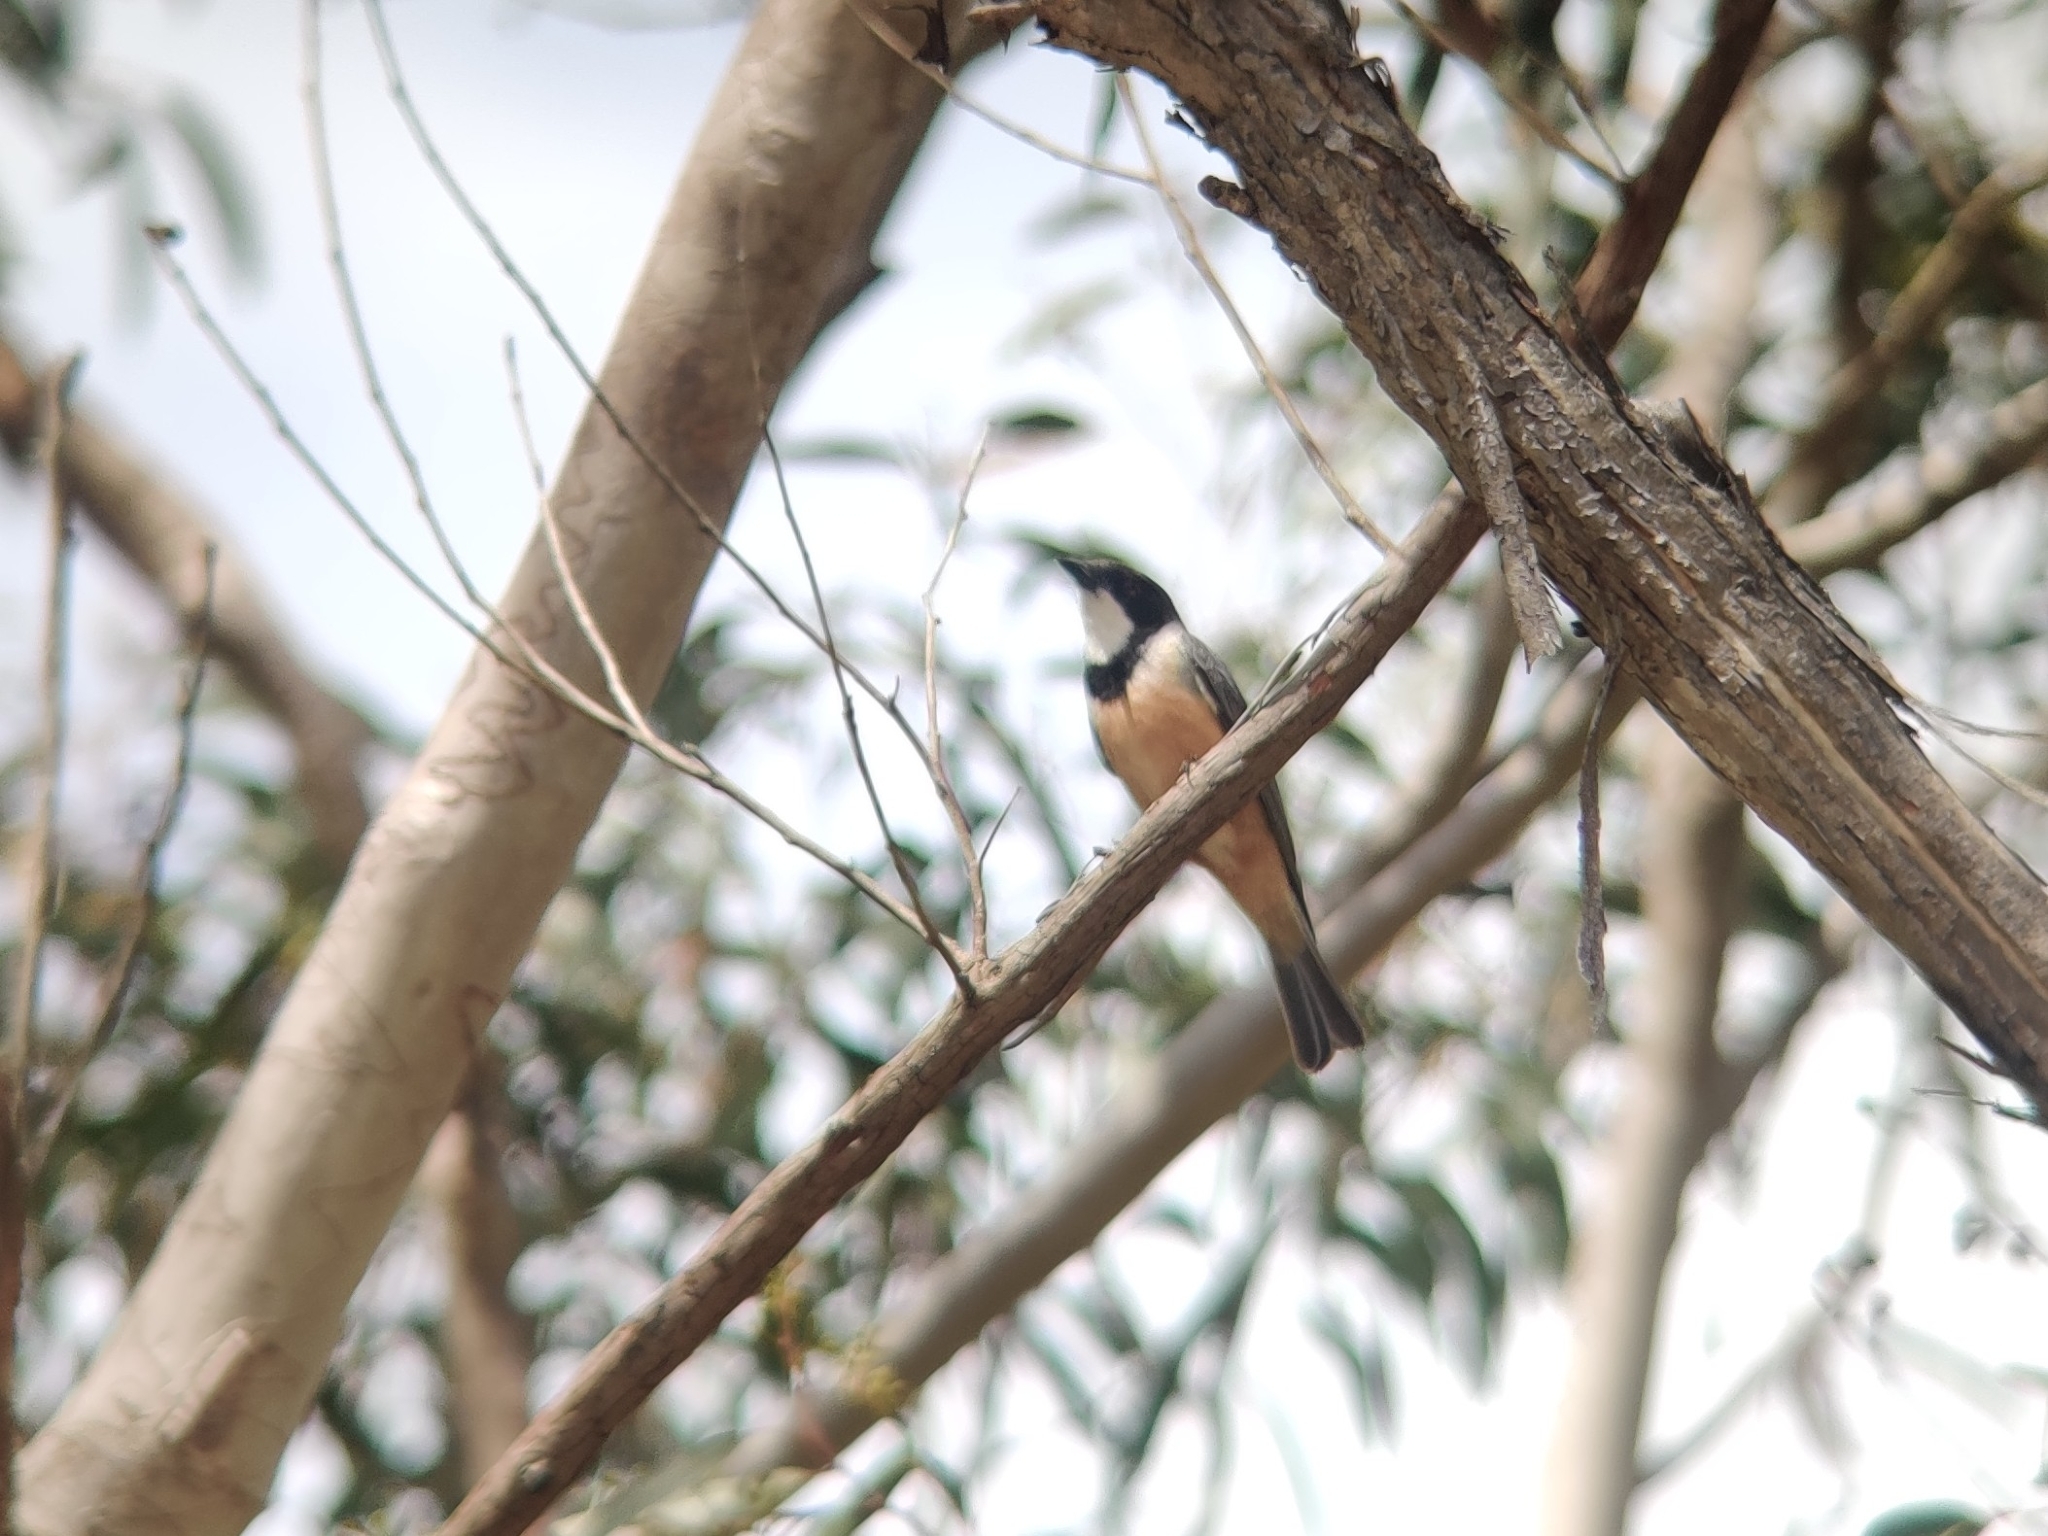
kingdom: Animalia
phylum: Chordata
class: Aves
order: Passeriformes
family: Pachycephalidae
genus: Pachycephala
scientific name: Pachycephala rufiventris
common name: Rufous whistler
